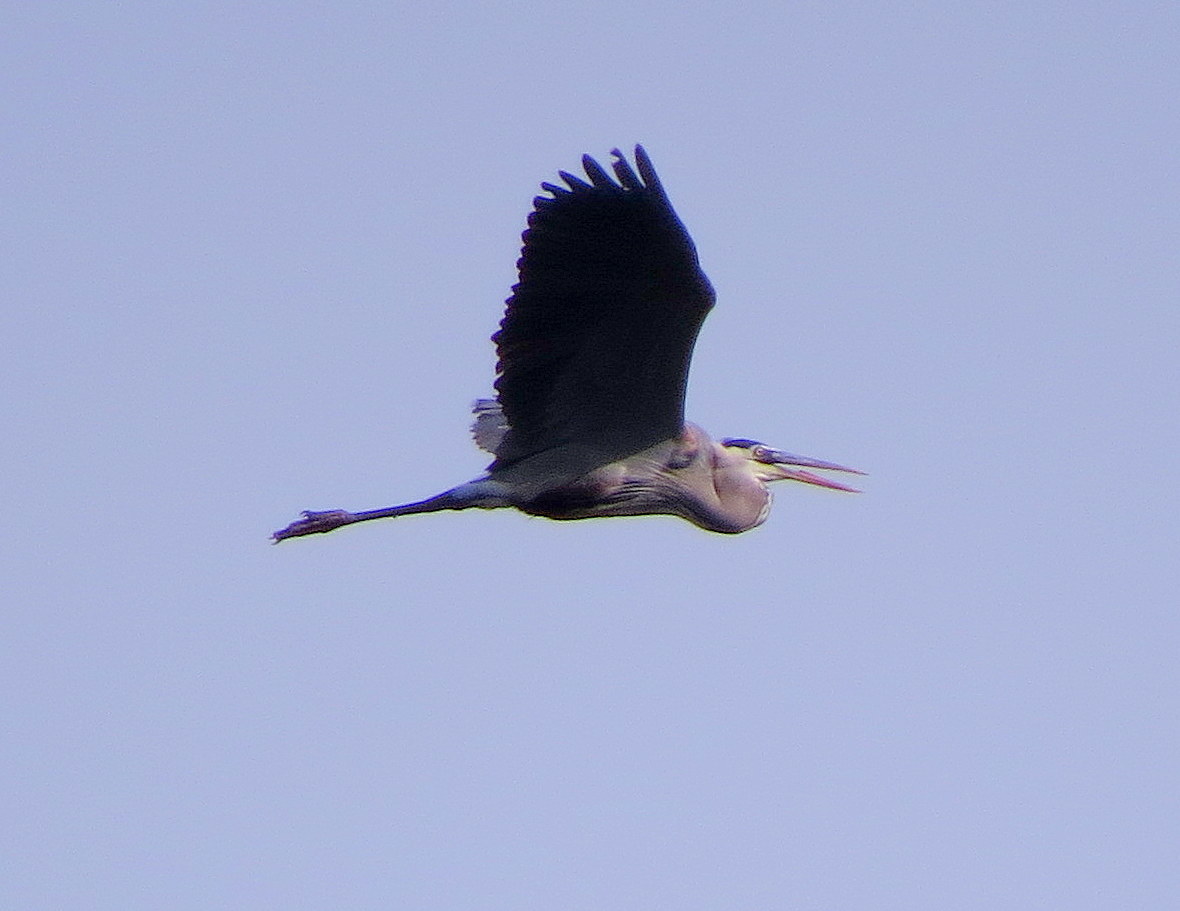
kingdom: Animalia
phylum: Chordata
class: Aves
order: Pelecaniformes
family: Ardeidae
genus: Ardea
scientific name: Ardea herodias
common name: Great blue heron
